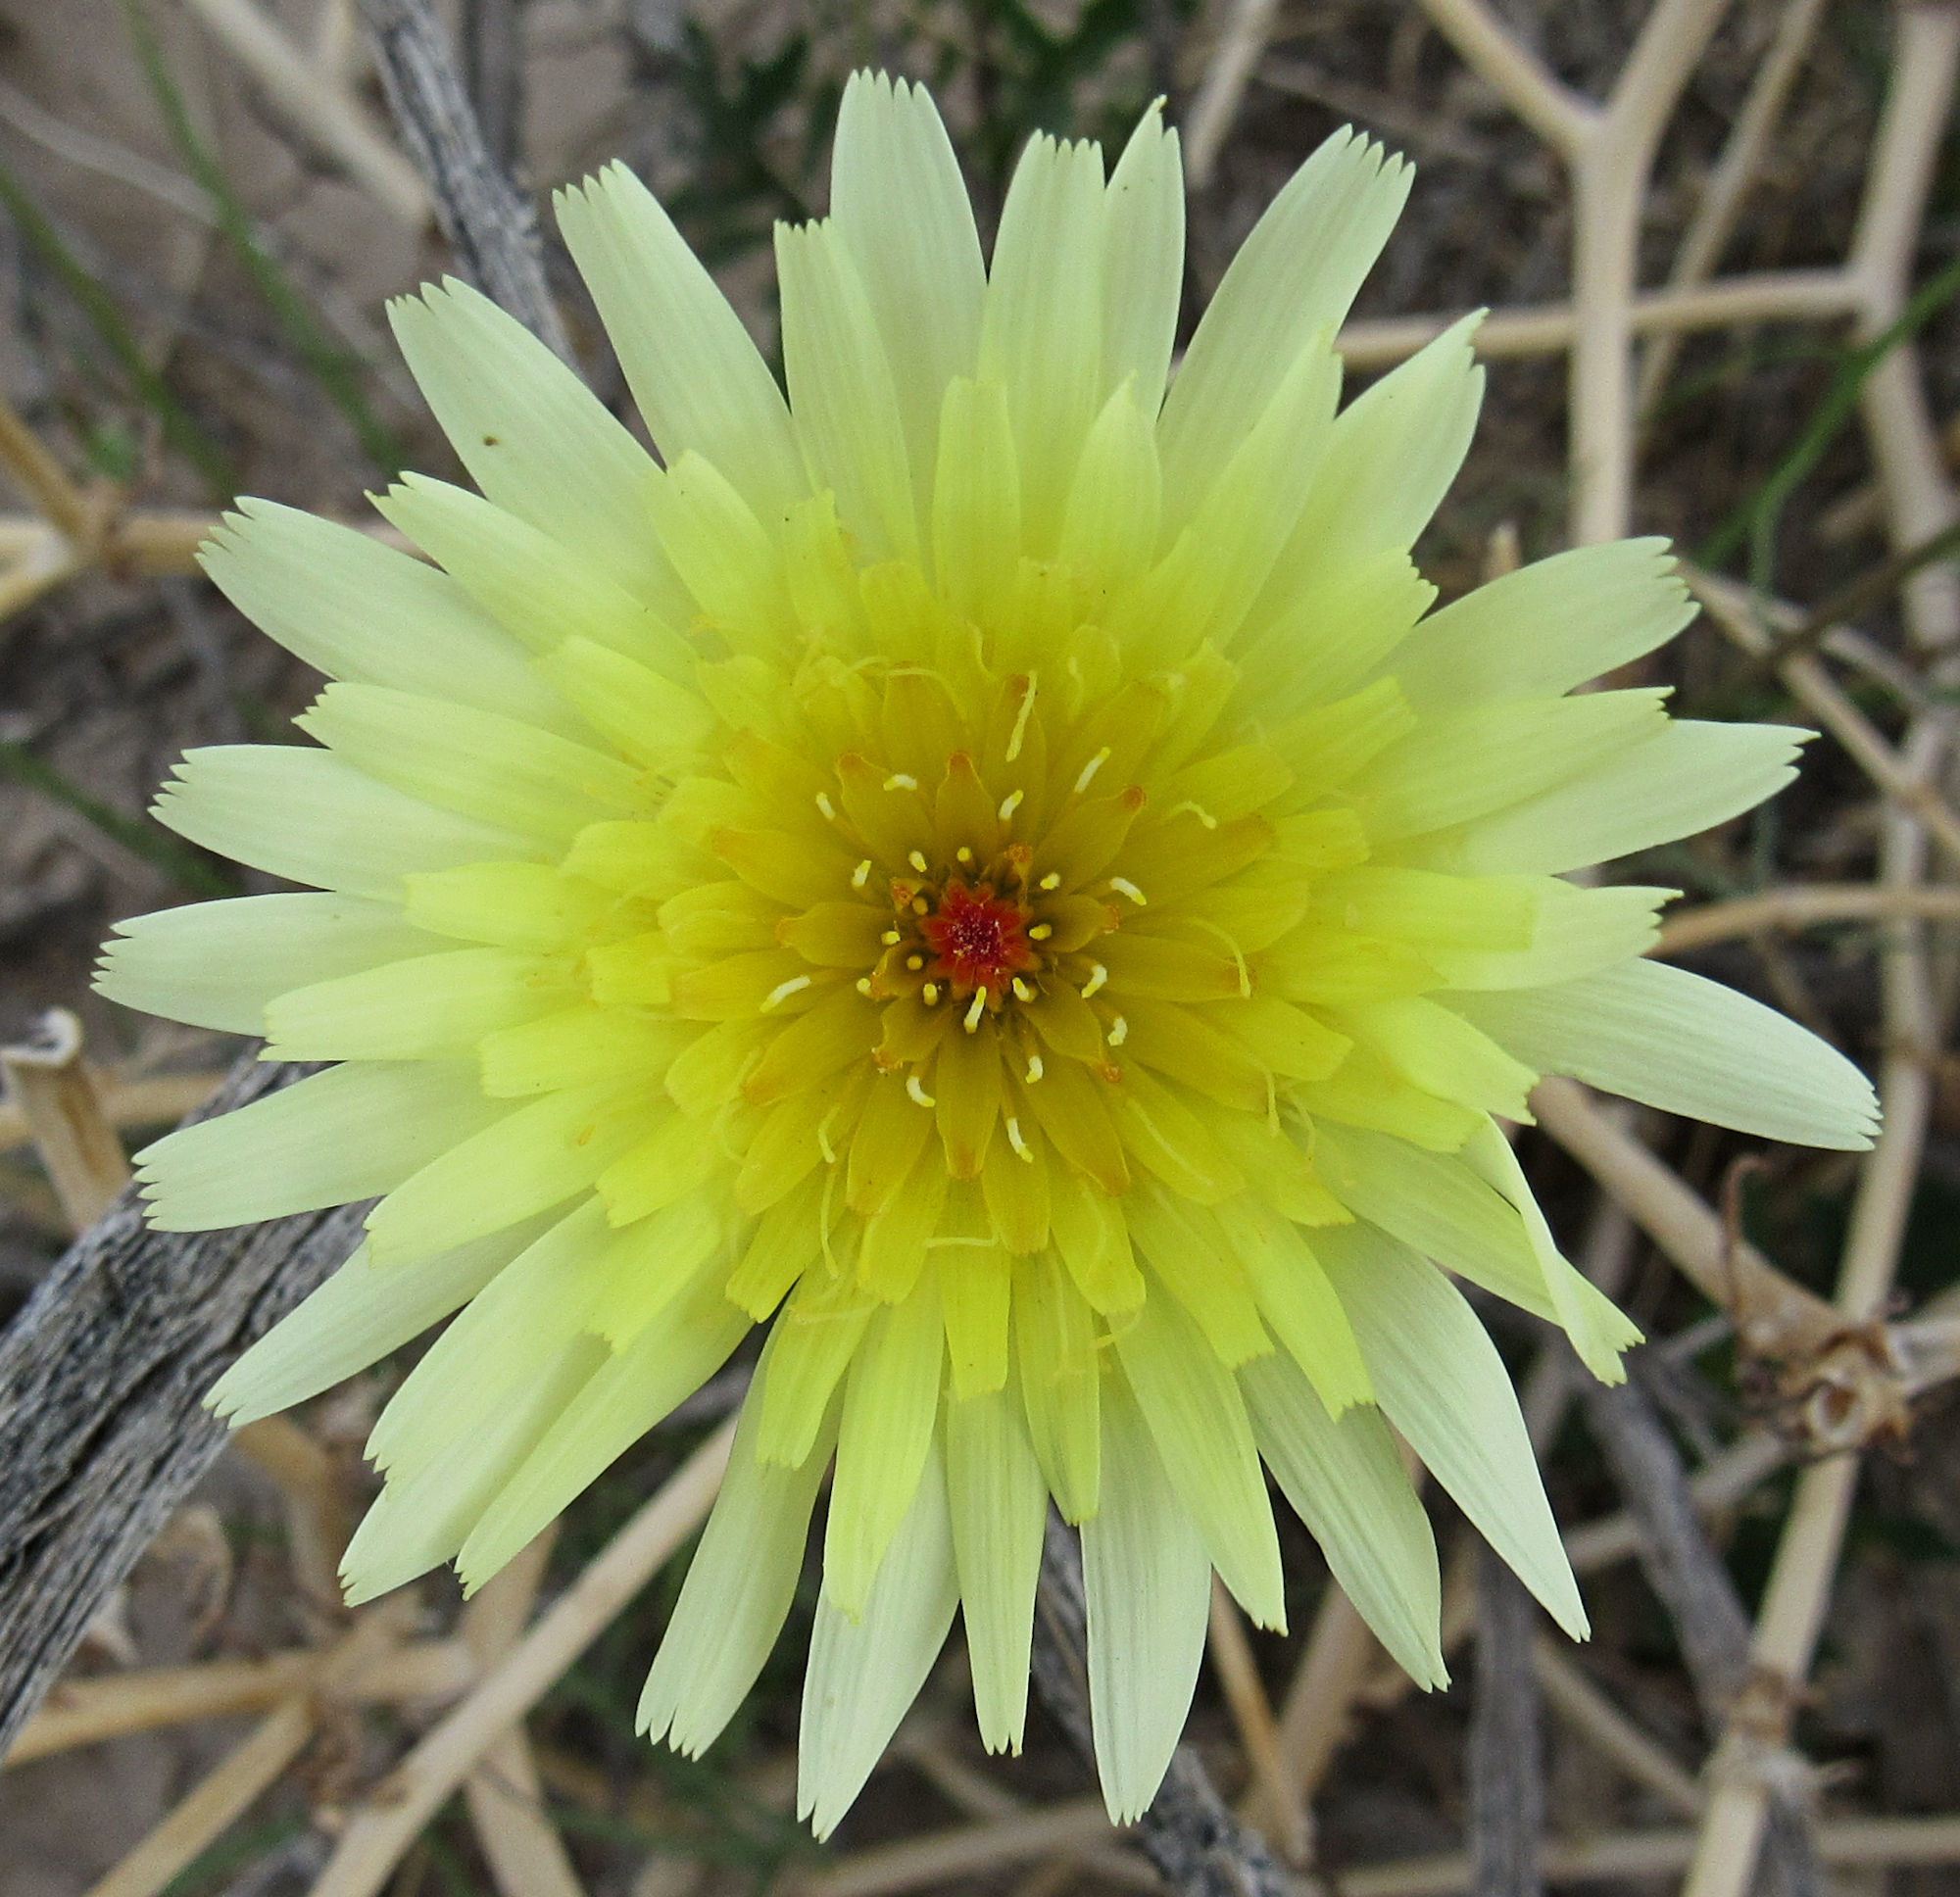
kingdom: Plantae
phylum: Tracheophyta
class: Magnoliopsida
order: Asterales
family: Asteraceae
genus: Malacothrix
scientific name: Malacothrix glabrata
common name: Smooth desert-dandelion
